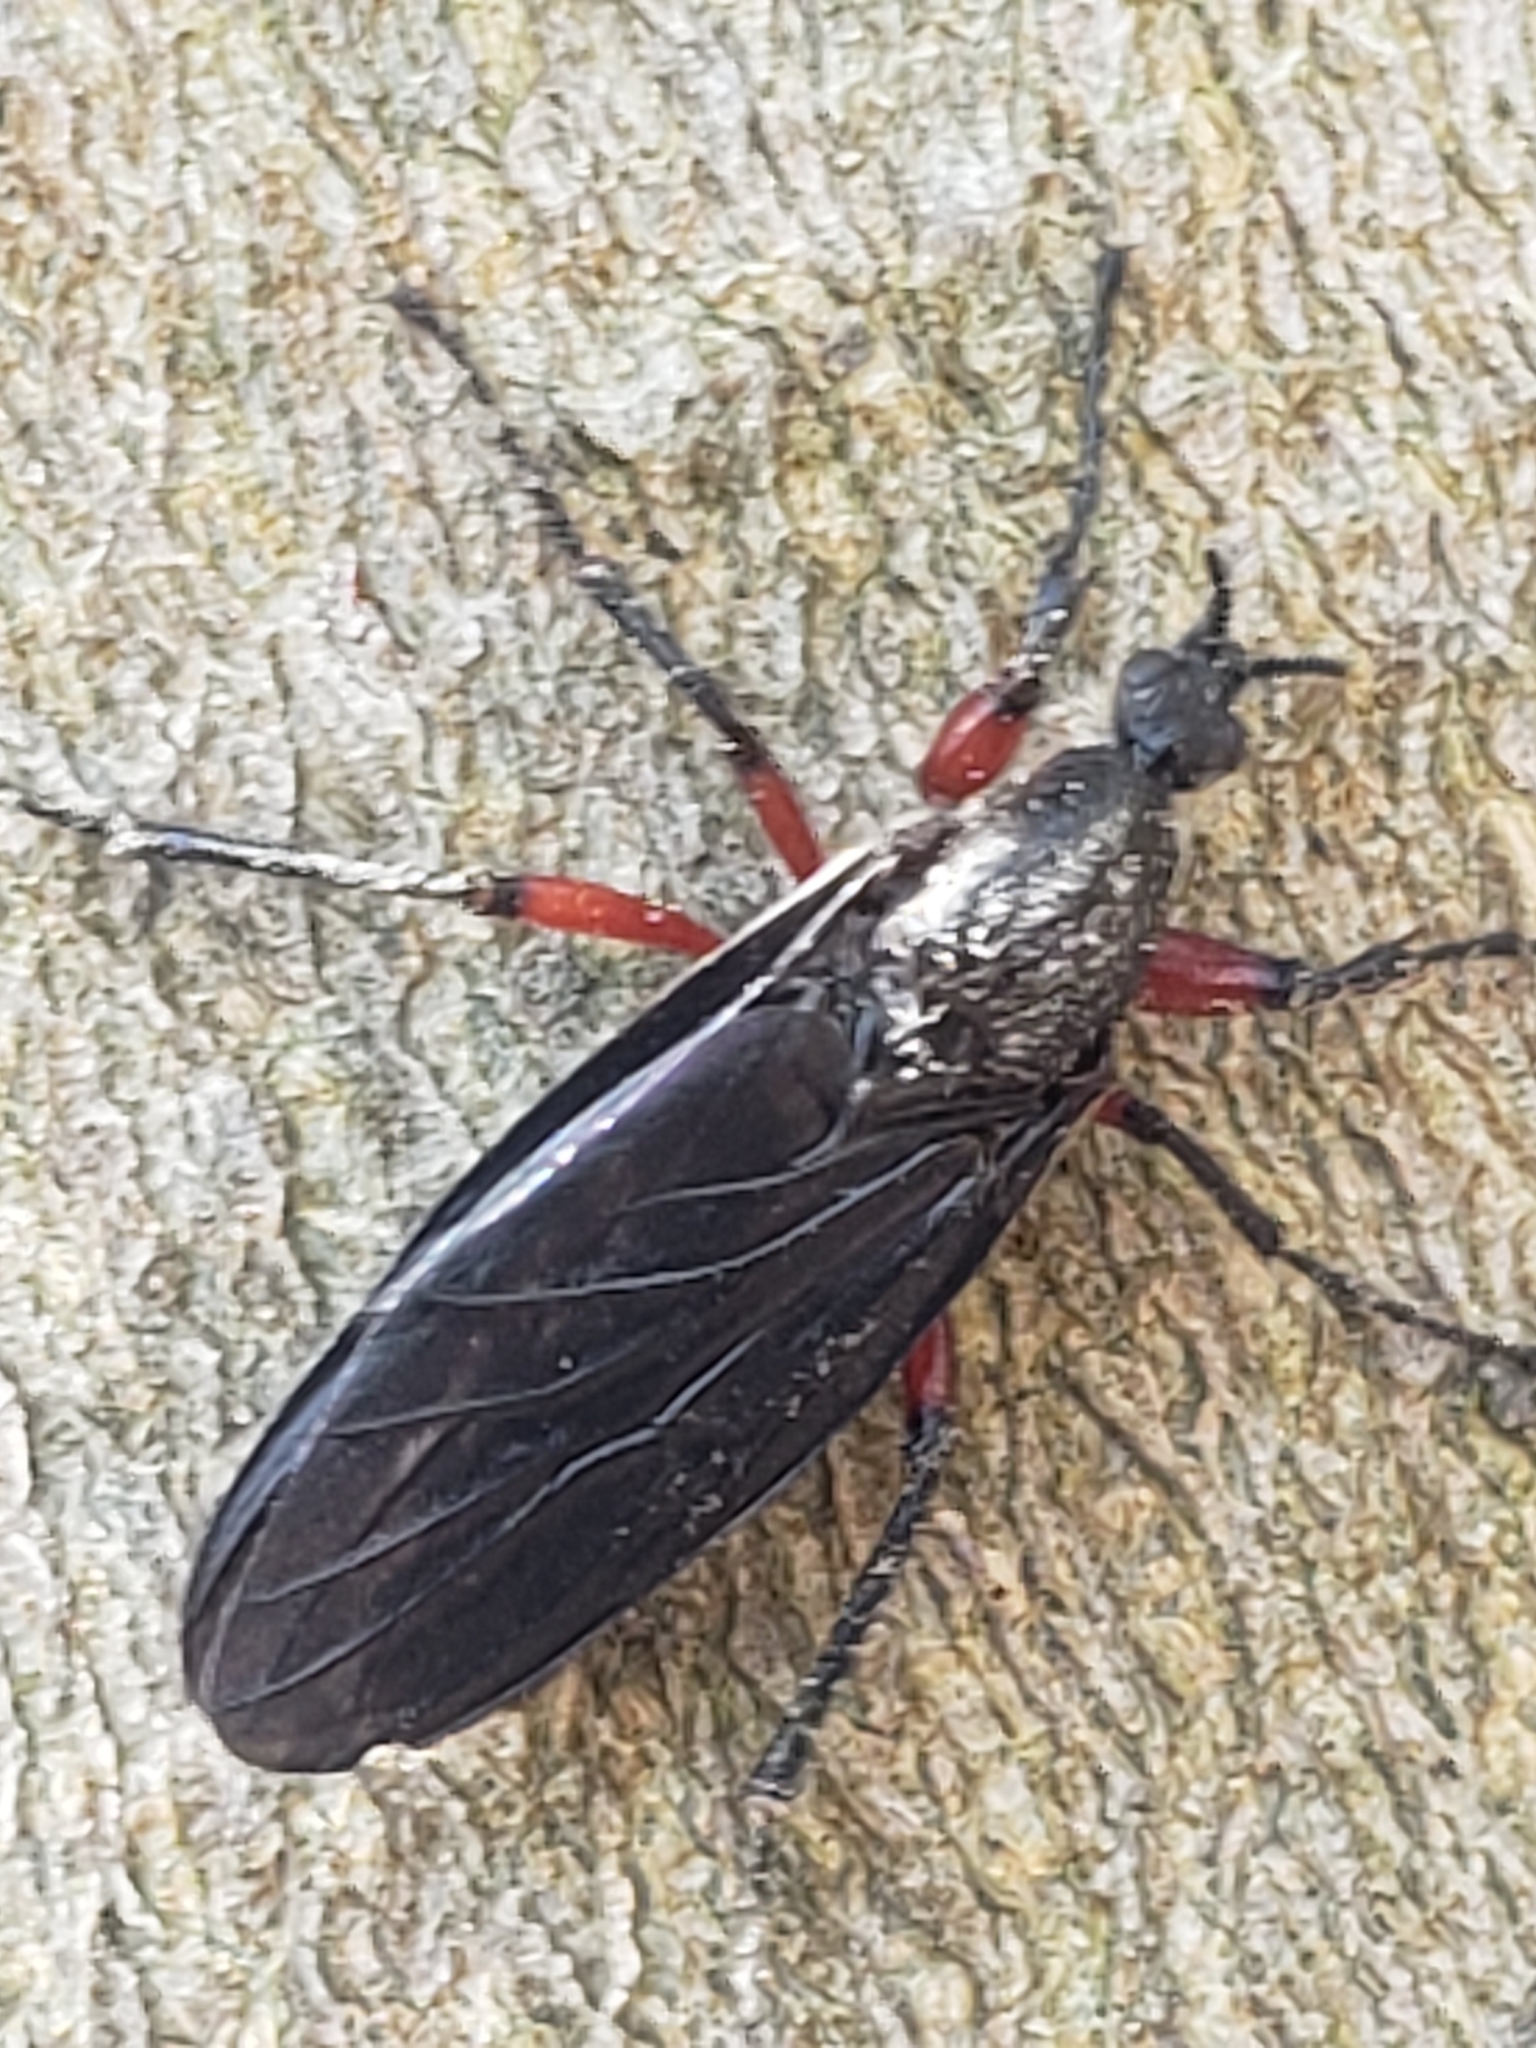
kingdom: Animalia
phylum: Arthropoda
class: Insecta
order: Diptera
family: Bibionidae
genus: Bibio
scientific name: Bibio femoratus
